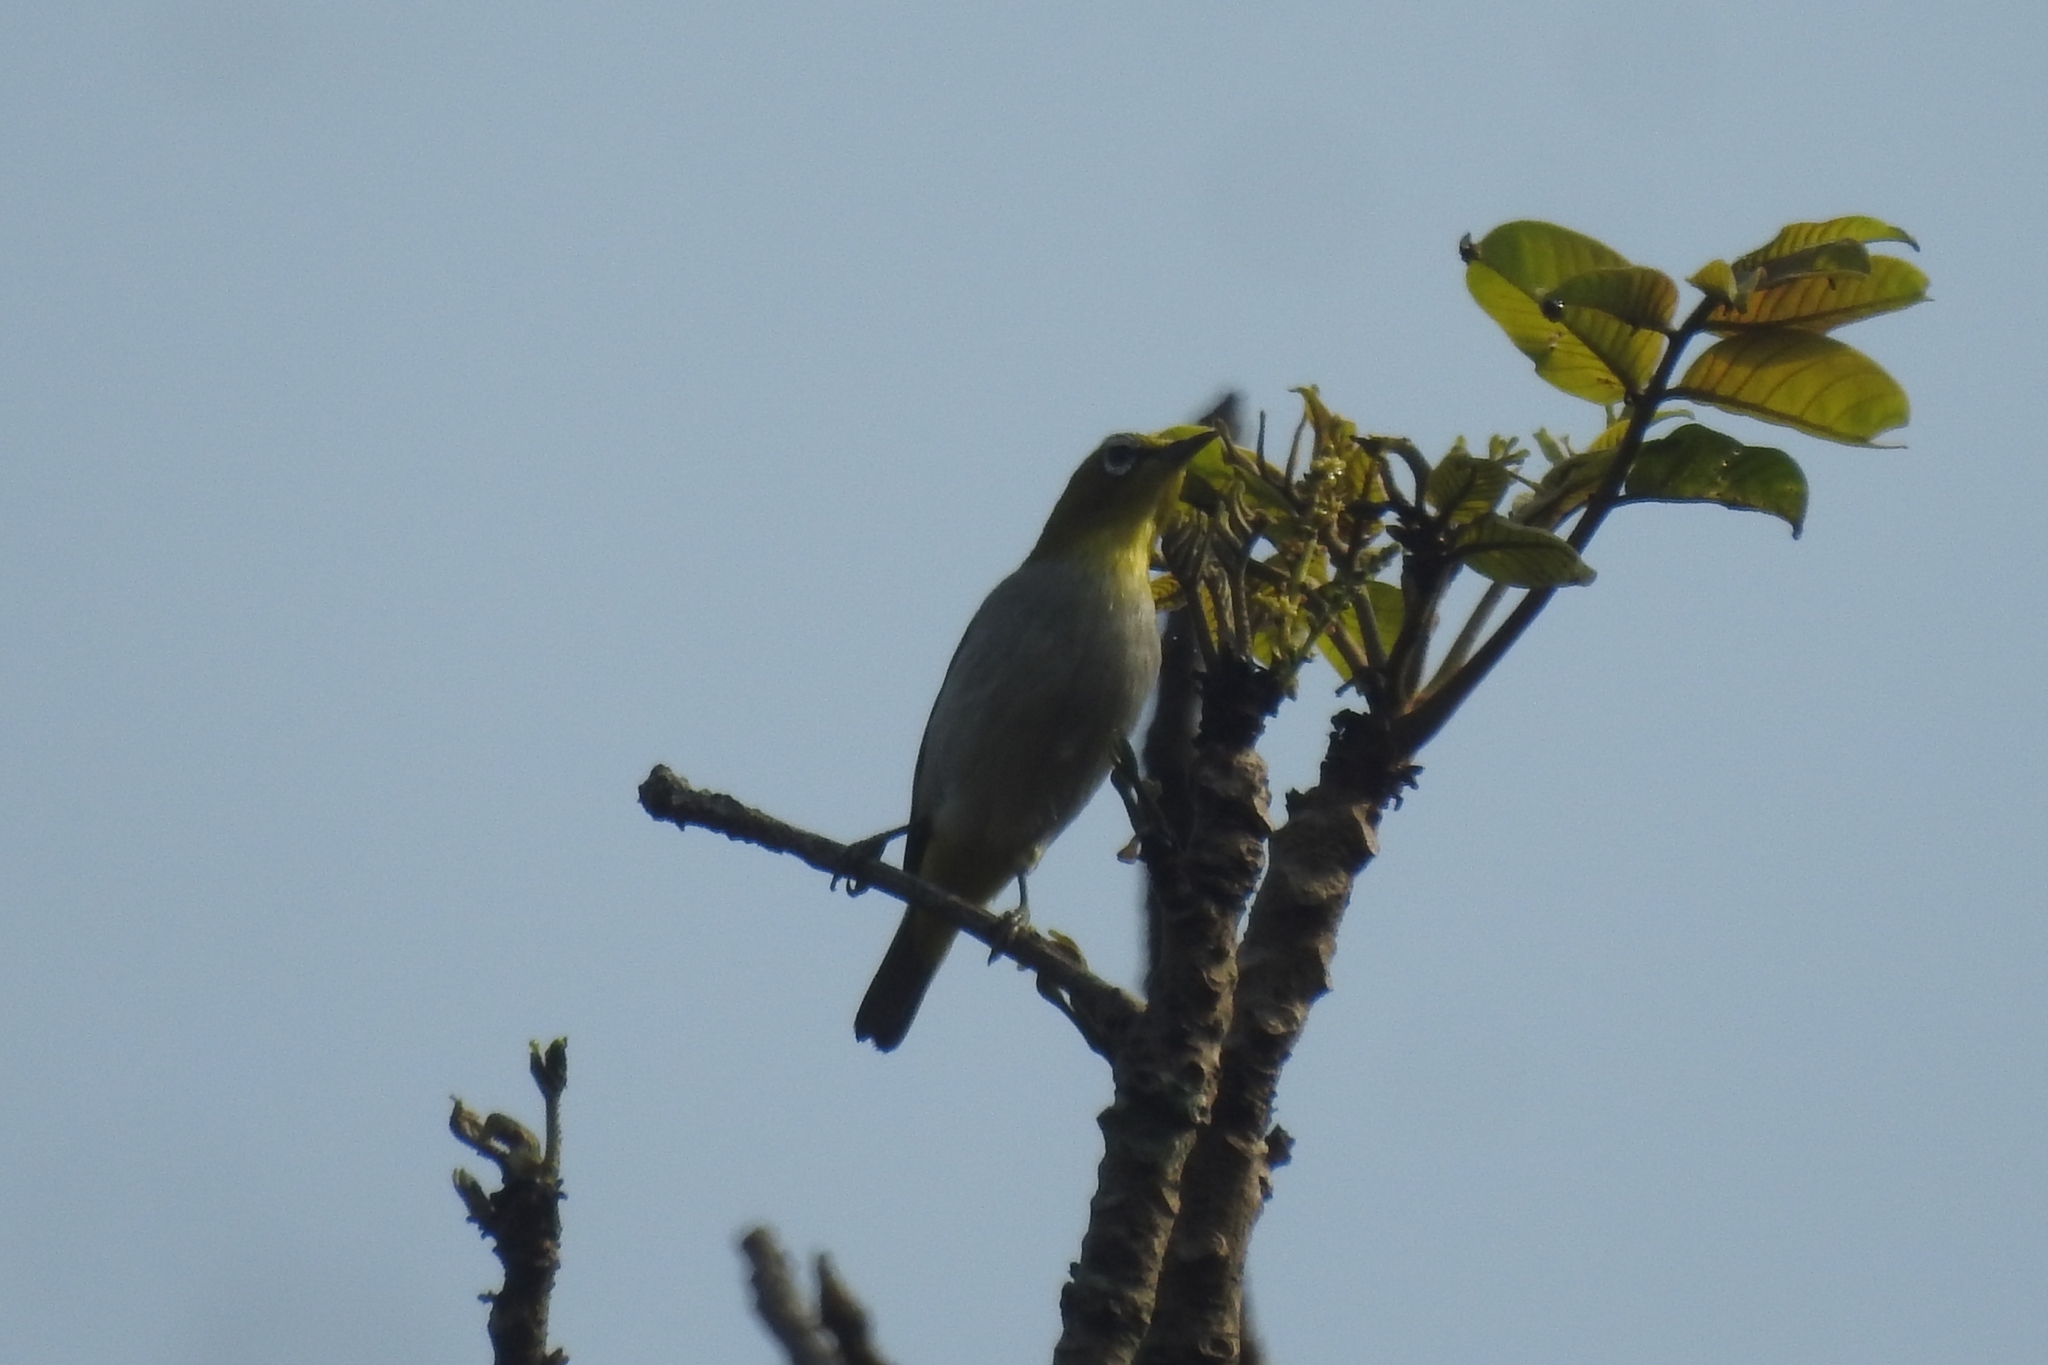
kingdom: Animalia
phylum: Chordata
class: Aves
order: Passeriformes
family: Zosteropidae
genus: Zosterops
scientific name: Zosterops palpebrosus
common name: Oriental white-eye
